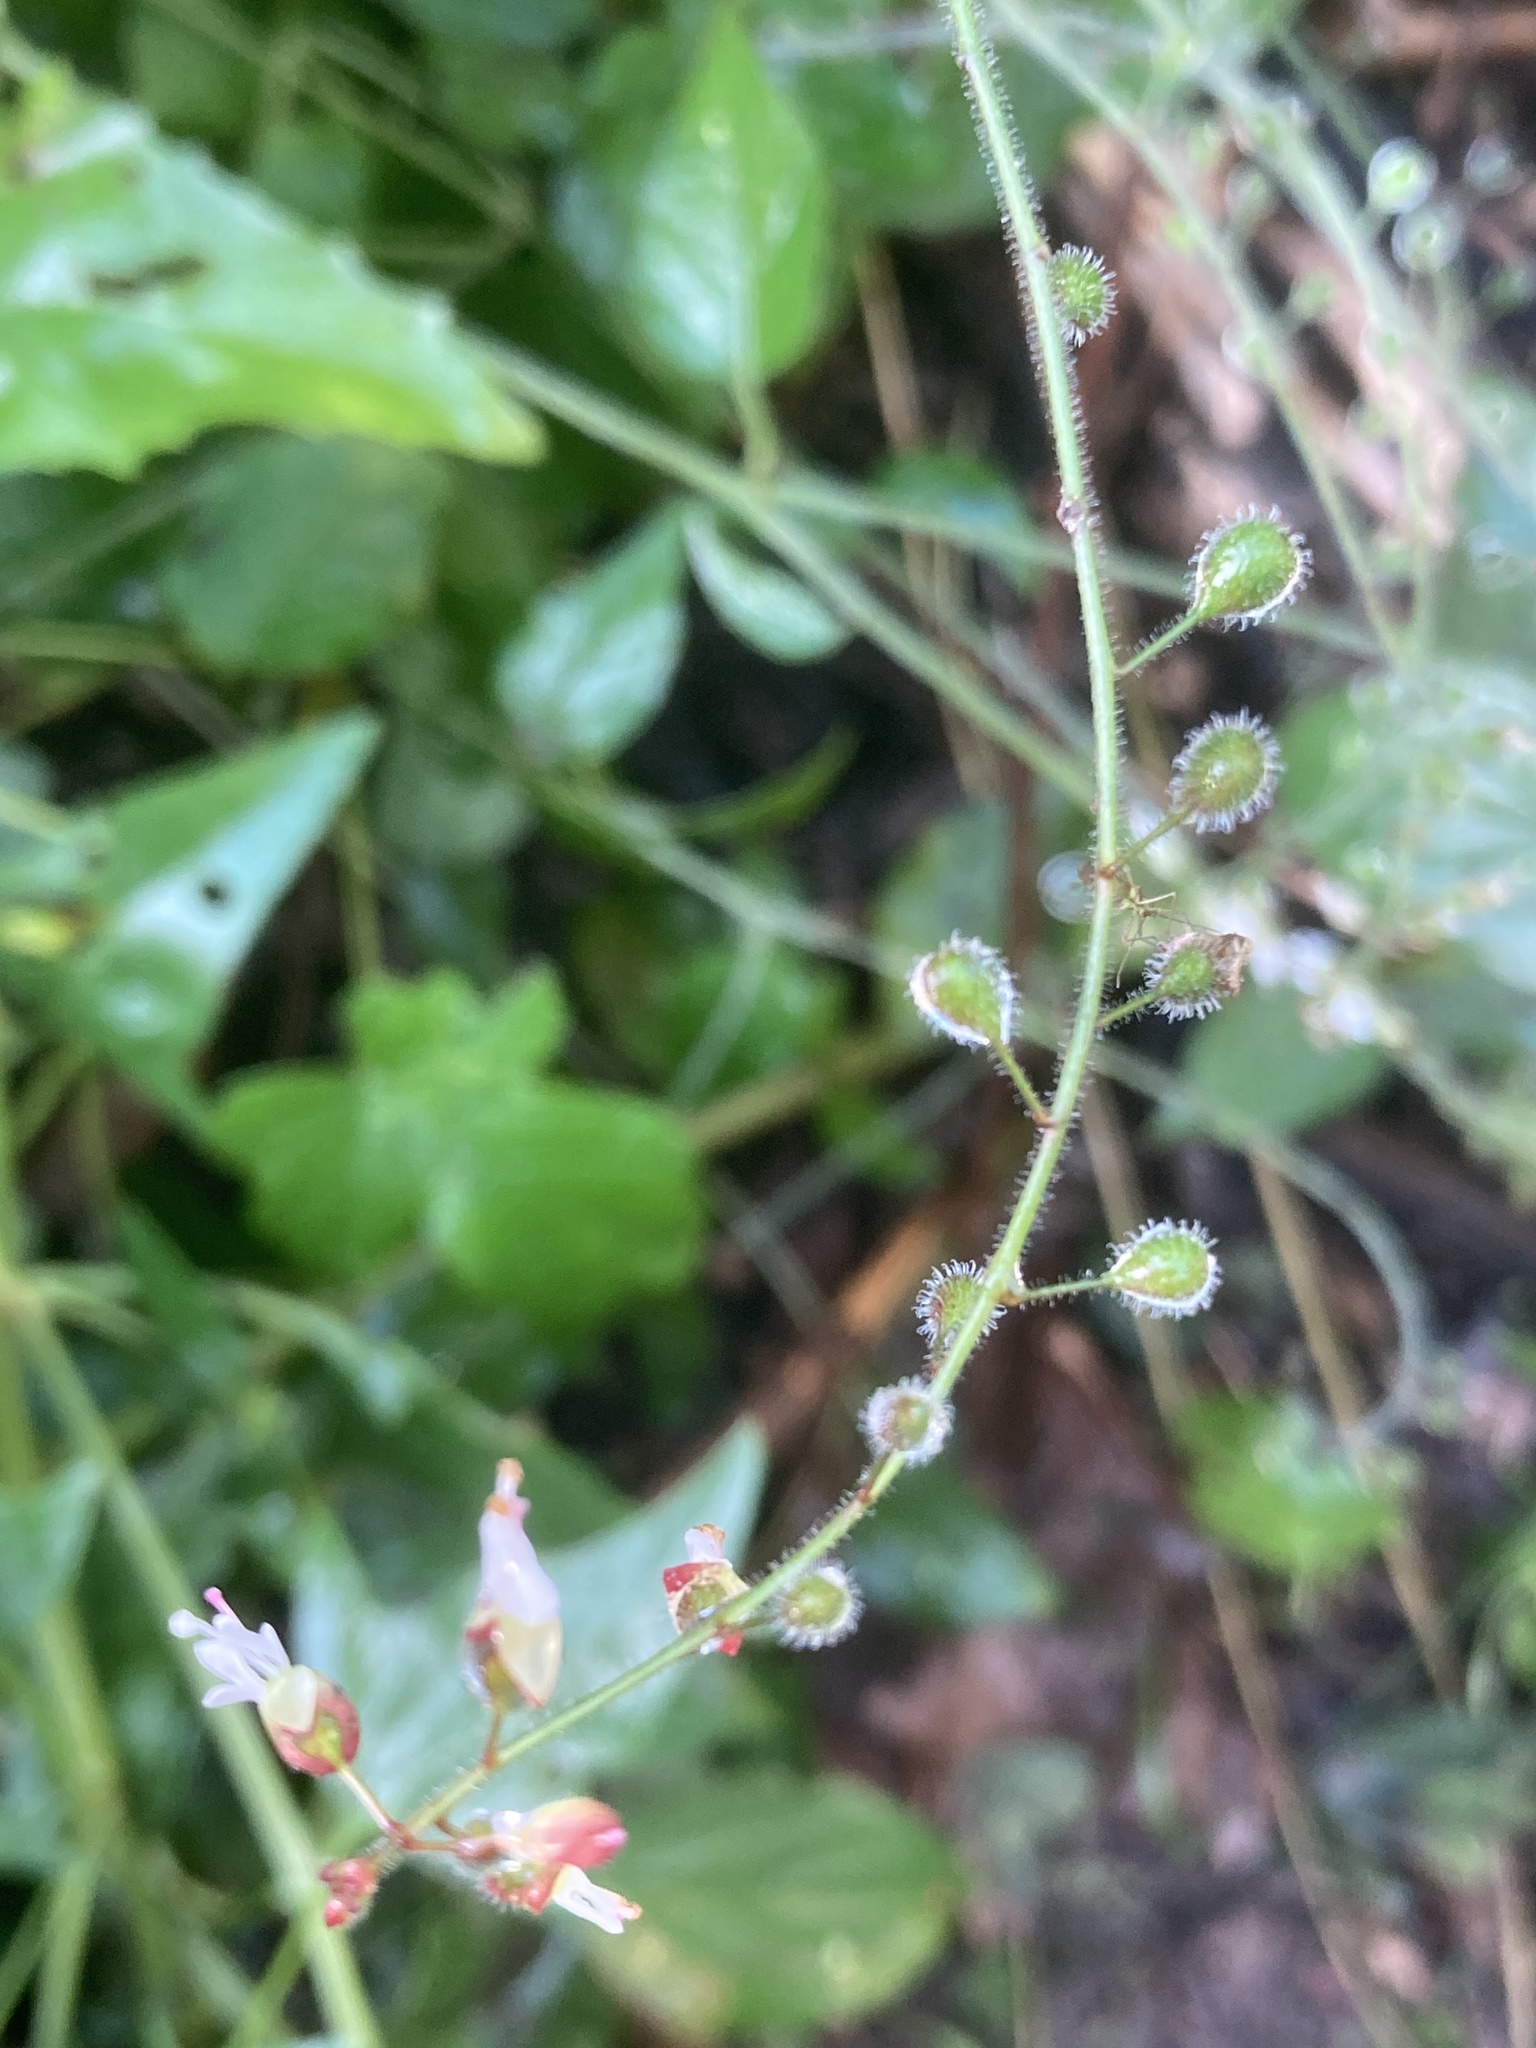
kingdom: Plantae
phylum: Tracheophyta
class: Magnoliopsida
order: Myrtales
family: Onagraceae
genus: Circaea
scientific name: Circaea lutetiana
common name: Enchanter's-nightshade
